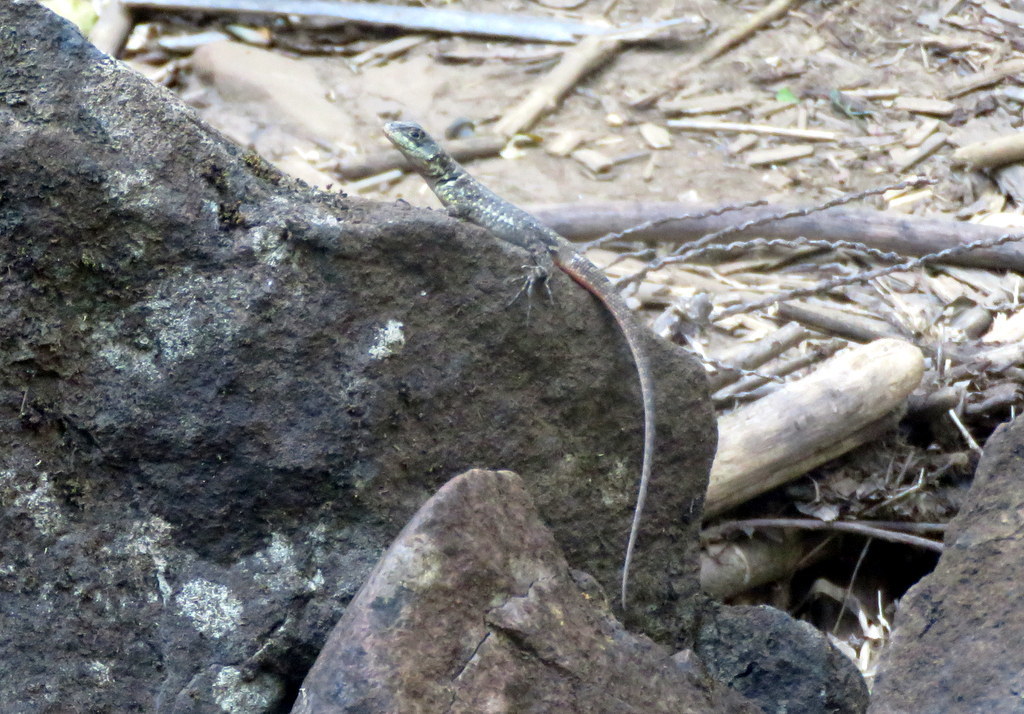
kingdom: Animalia
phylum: Chordata
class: Squamata
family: Tropiduridae
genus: Tropidurus
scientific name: Tropidurus catalanensis
